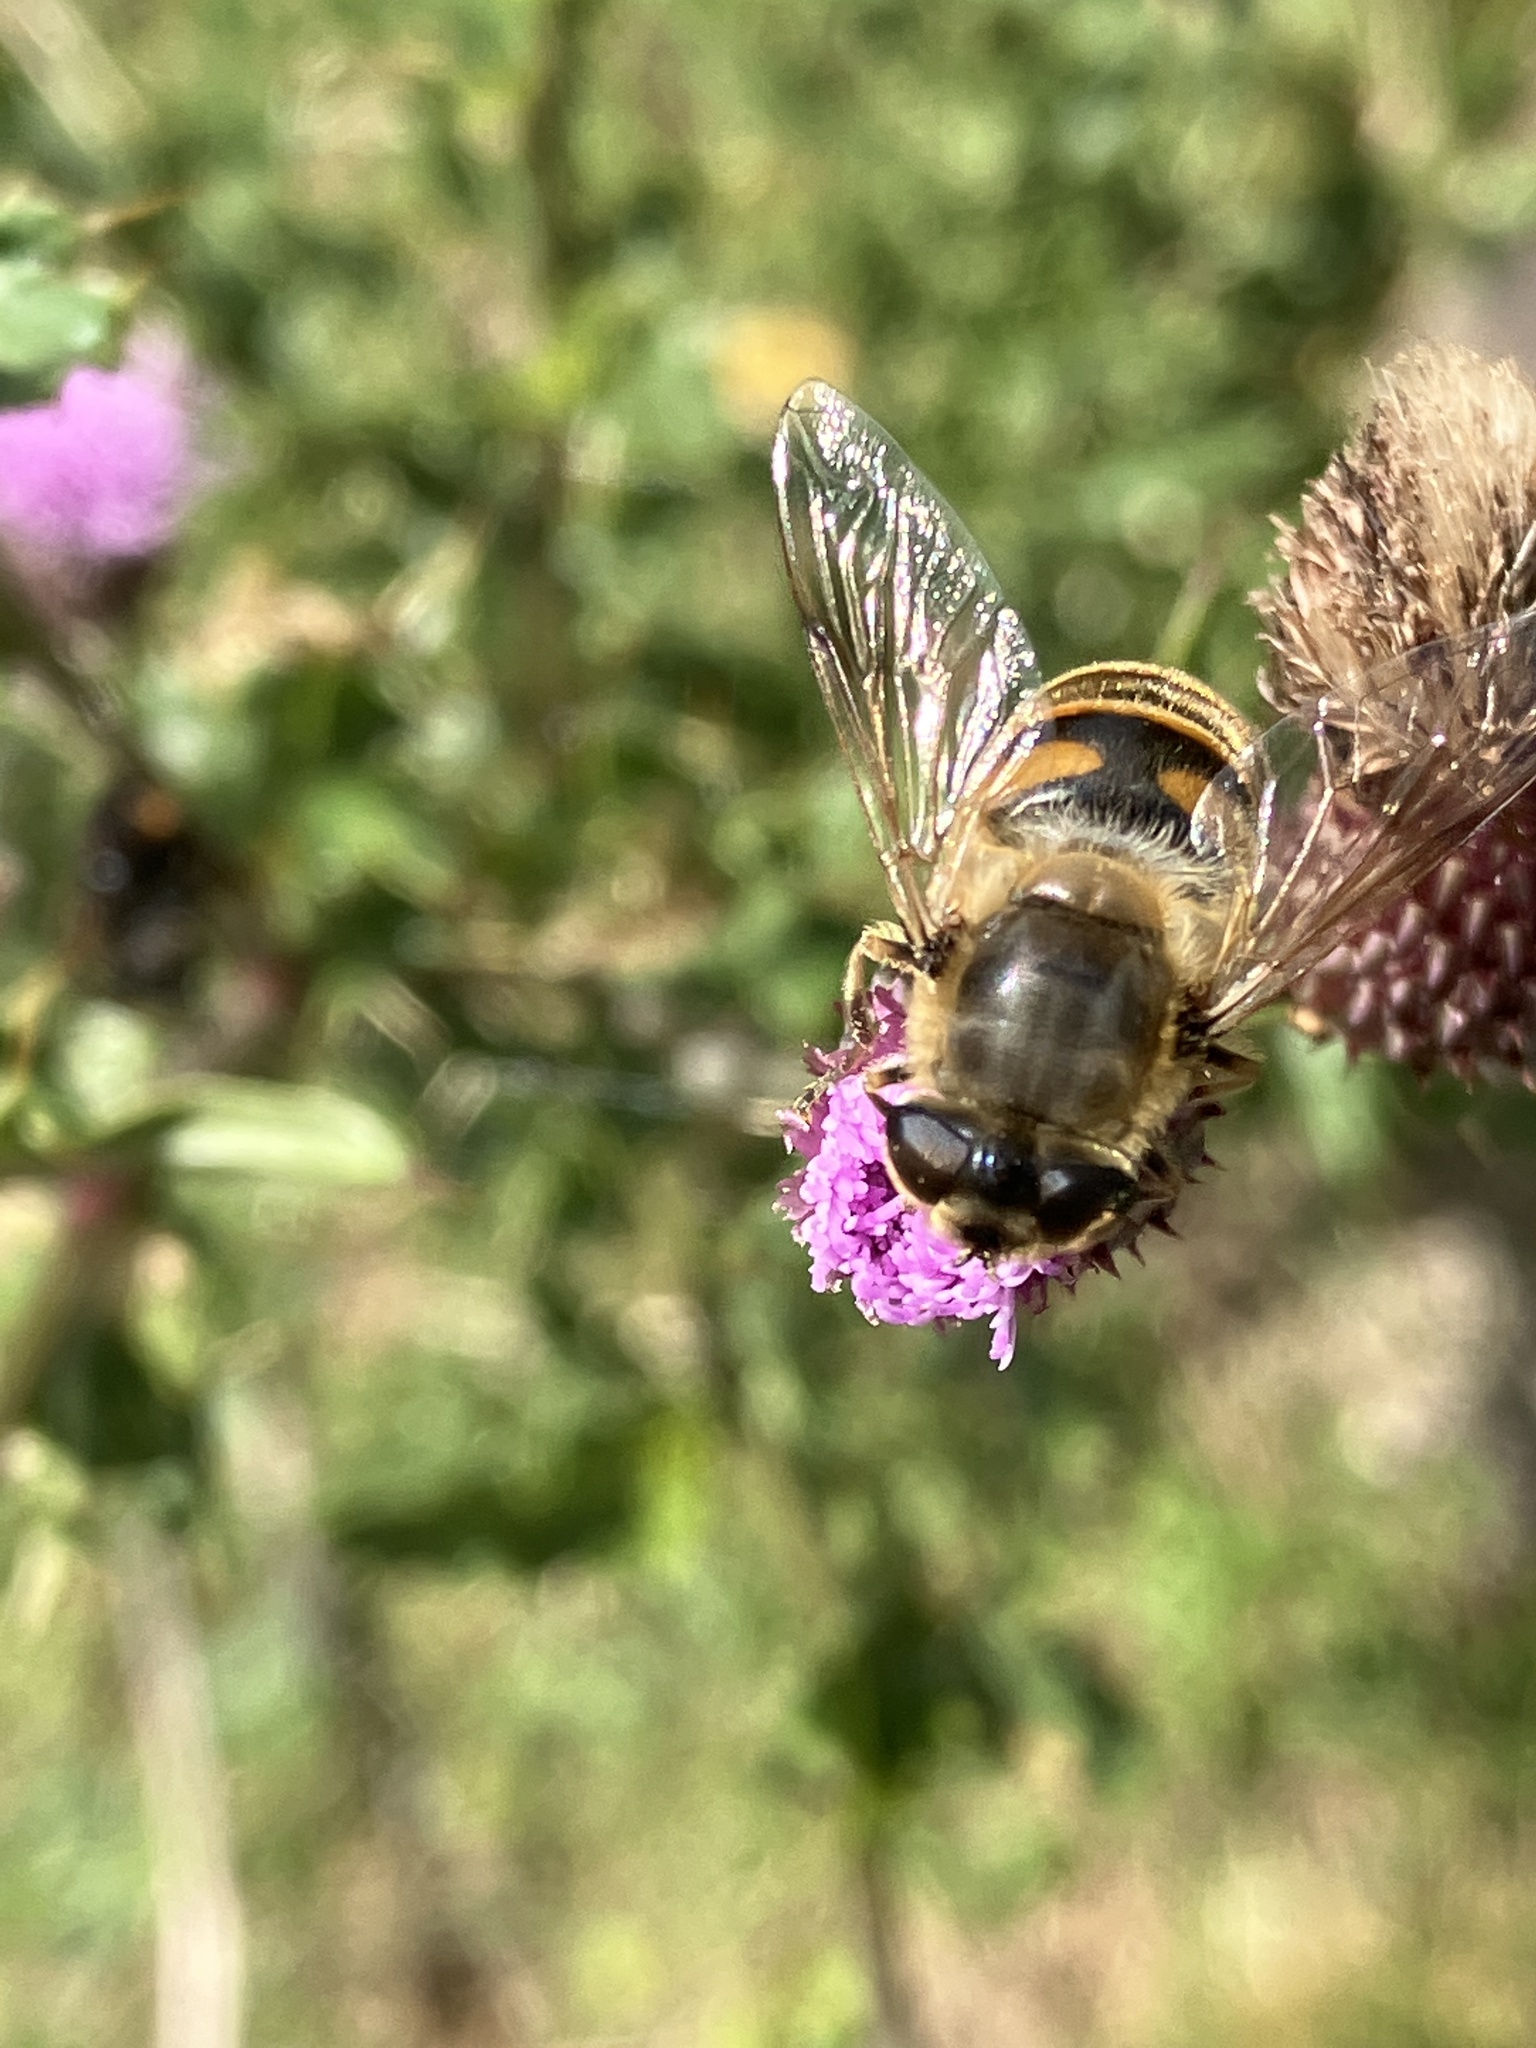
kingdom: Animalia
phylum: Arthropoda
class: Insecta
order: Diptera
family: Syrphidae
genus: Eristalis
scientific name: Eristalis tenax
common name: Drone fly
